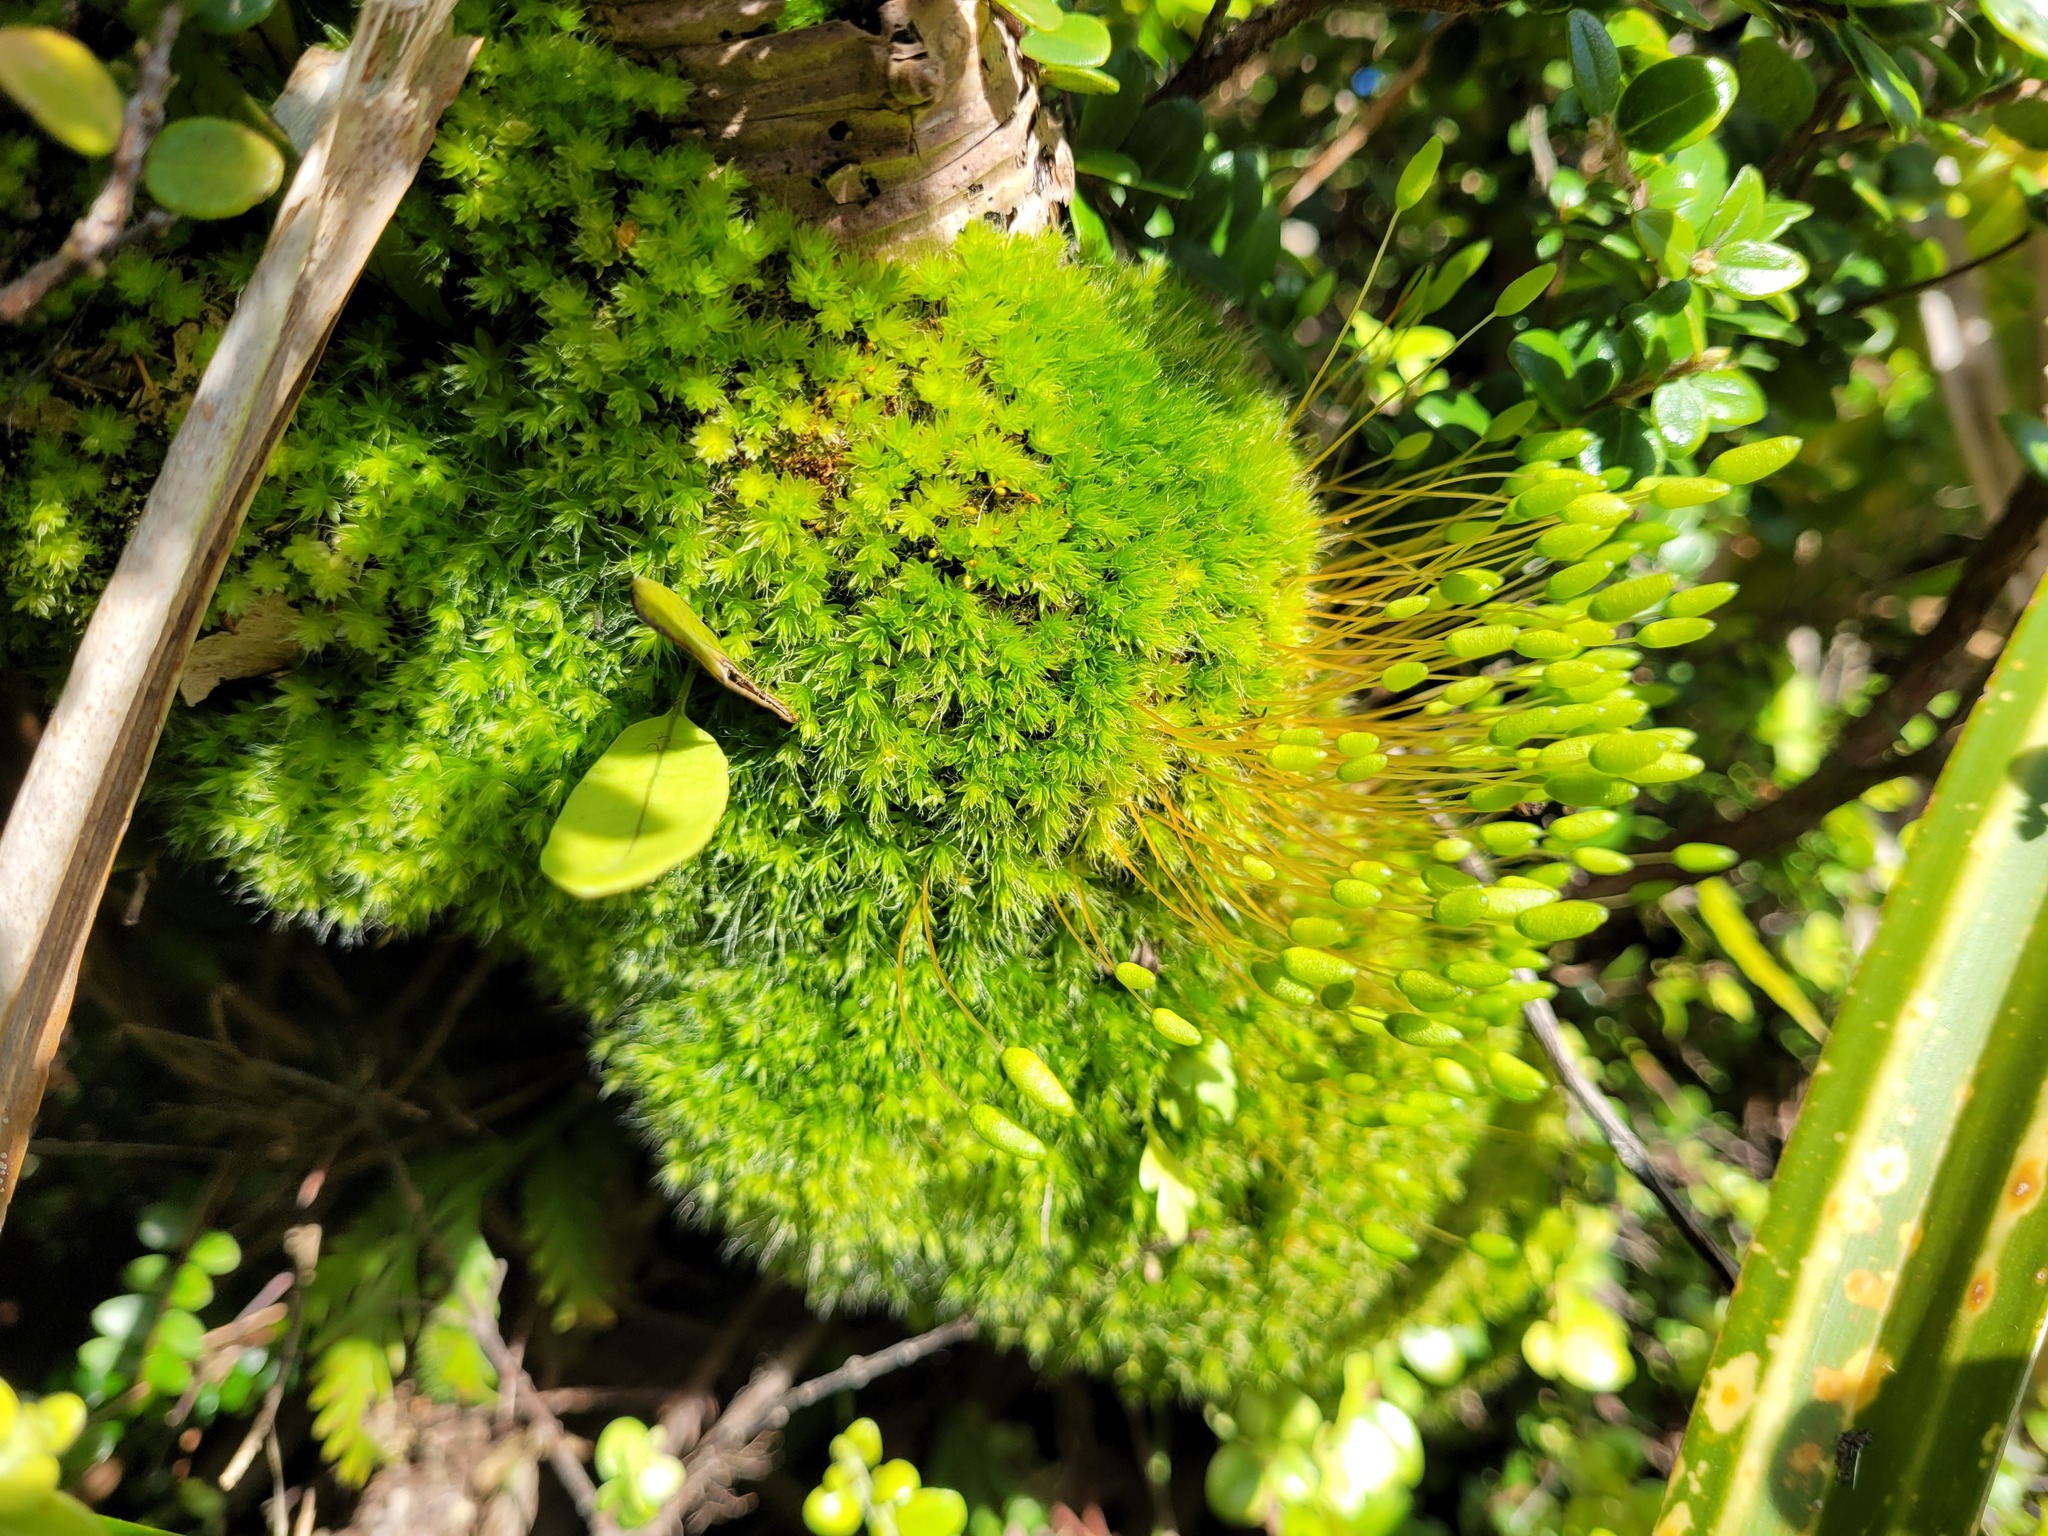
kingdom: Plantae
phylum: Bryophyta
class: Bryopsida
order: Bryales
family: Leptostomataceae
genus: Leptostomum
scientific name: Leptostomum macrocarpon
